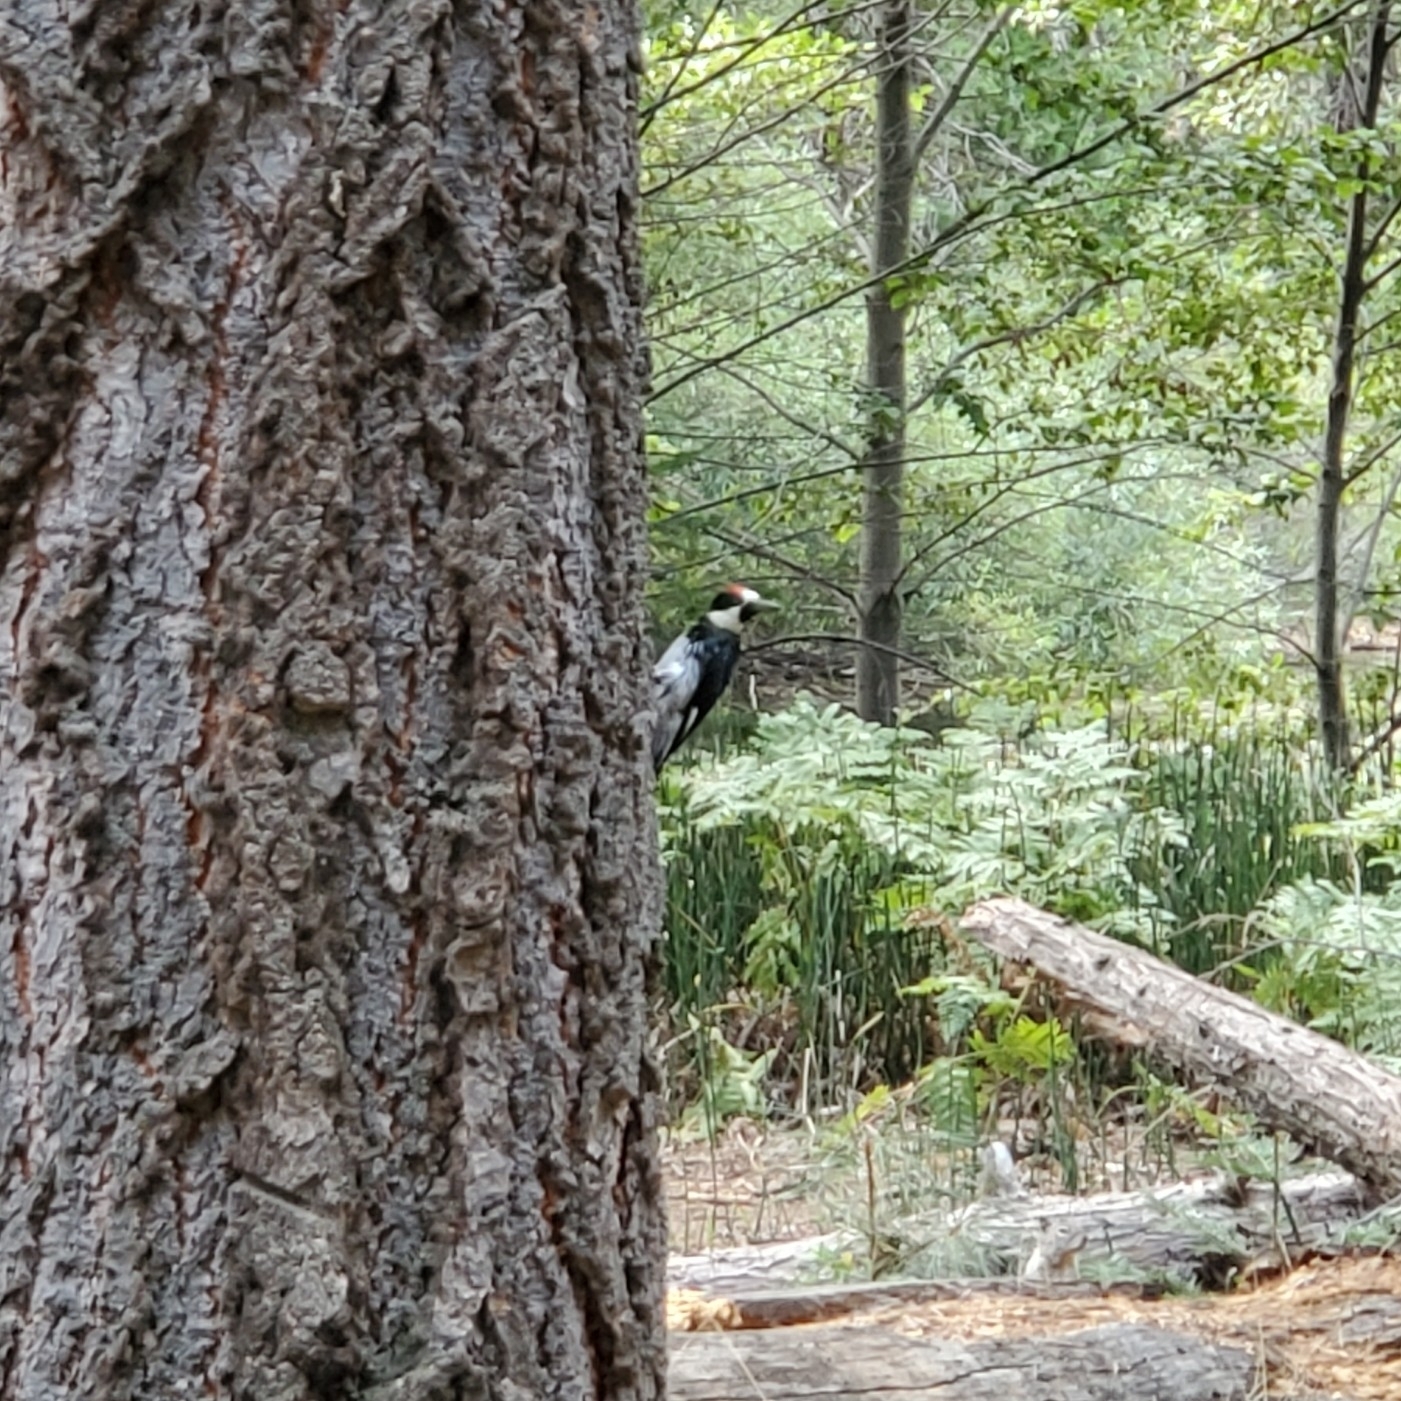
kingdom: Animalia
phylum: Chordata
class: Aves
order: Piciformes
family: Picidae
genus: Melanerpes
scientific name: Melanerpes formicivorus
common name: Acorn woodpecker
